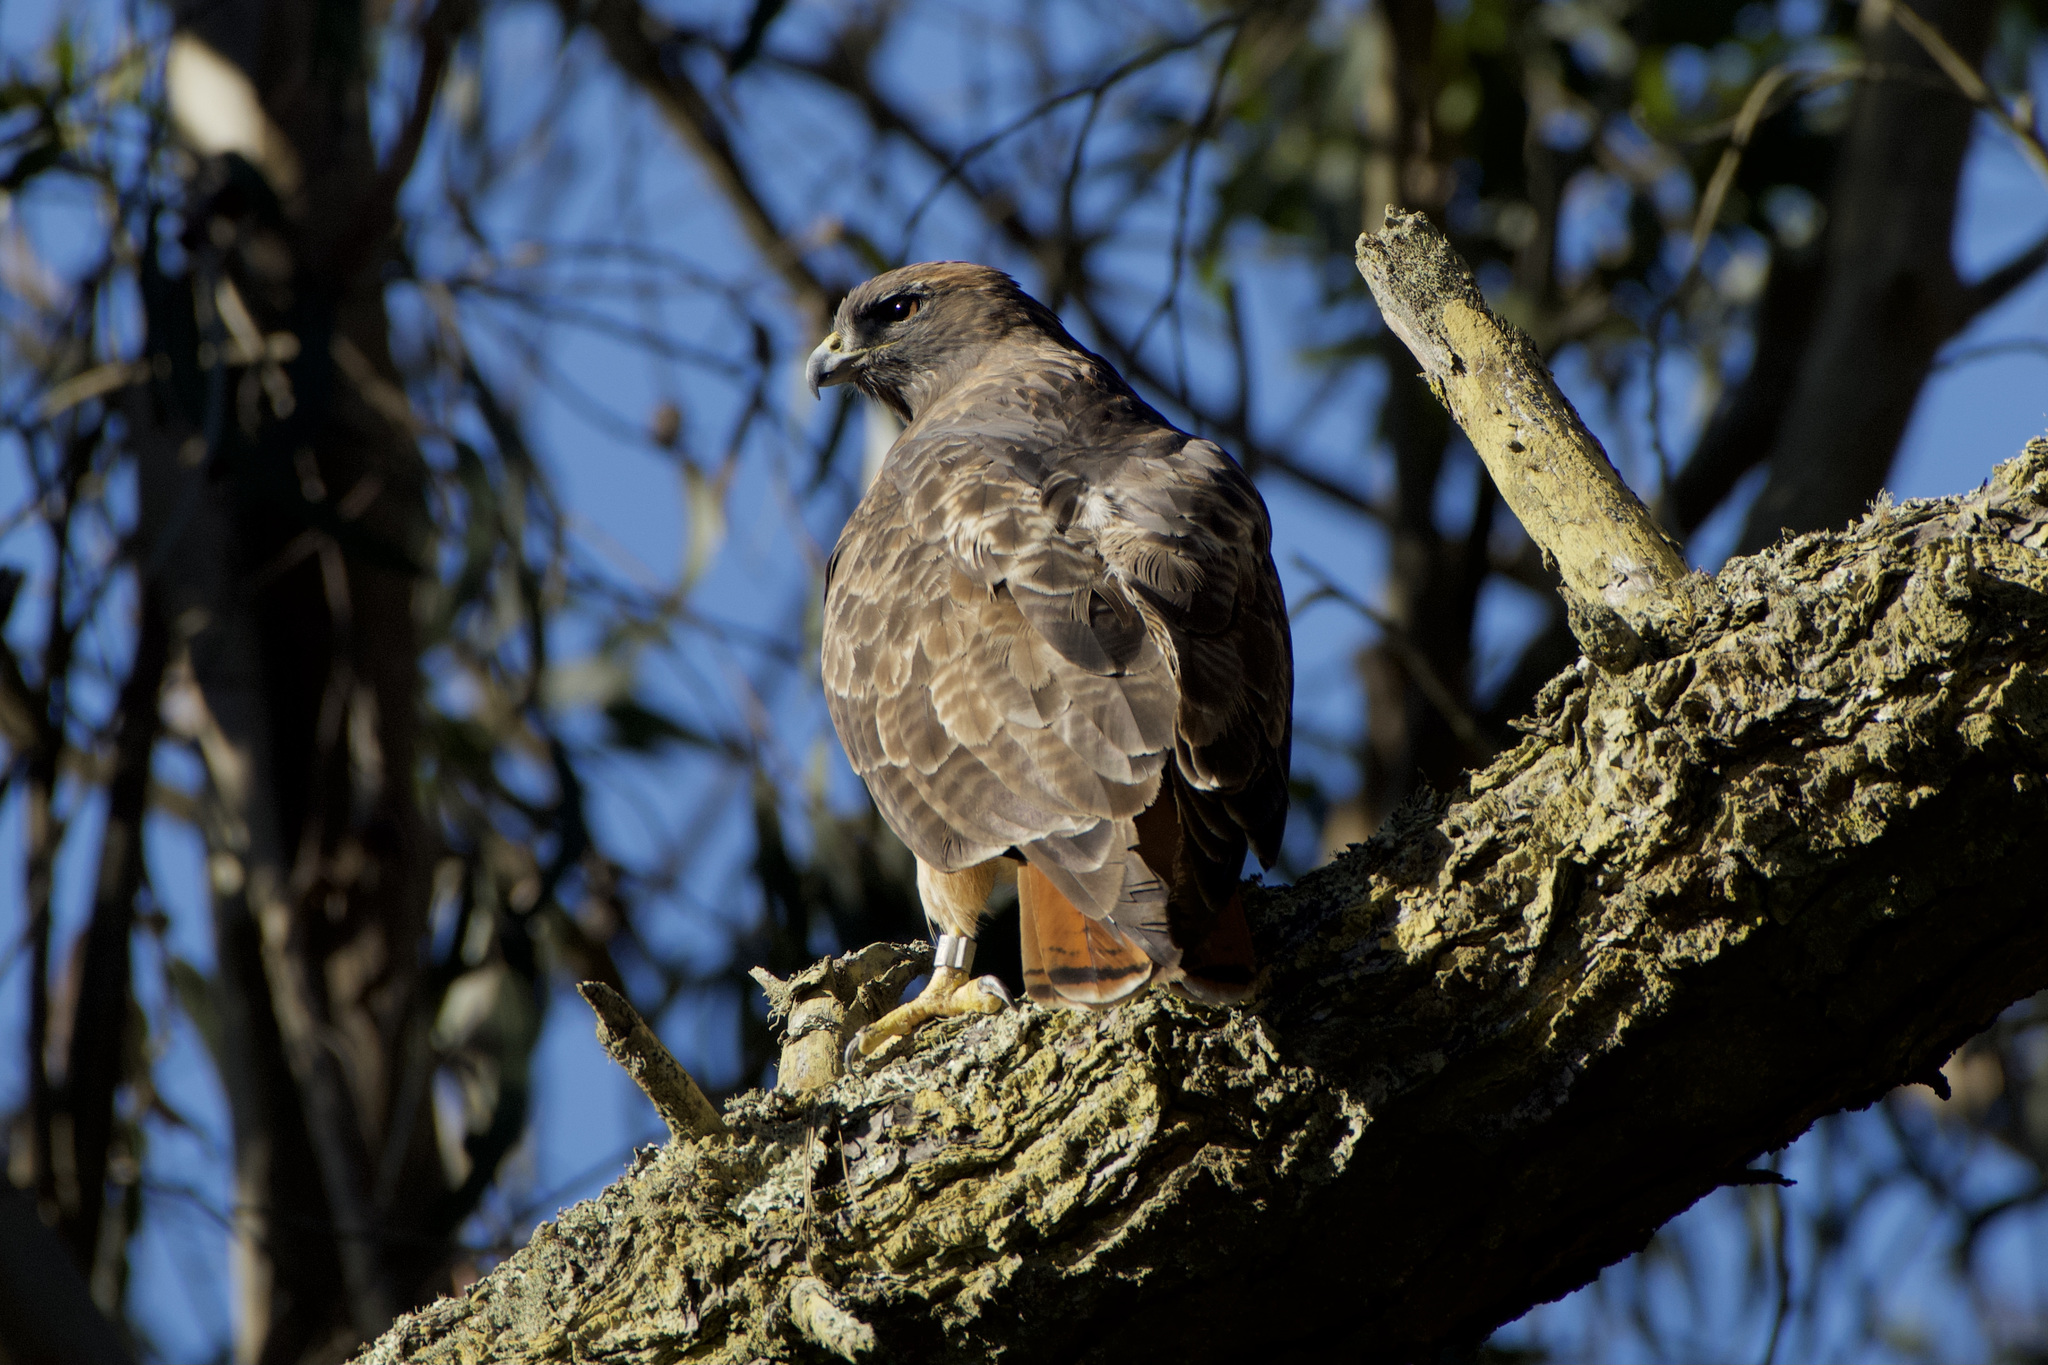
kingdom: Animalia
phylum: Chordata
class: Aves
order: Accipitriformes
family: Accipitridae
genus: Buteo
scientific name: Buteo jamaicensis
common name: Red-tailed hawk
